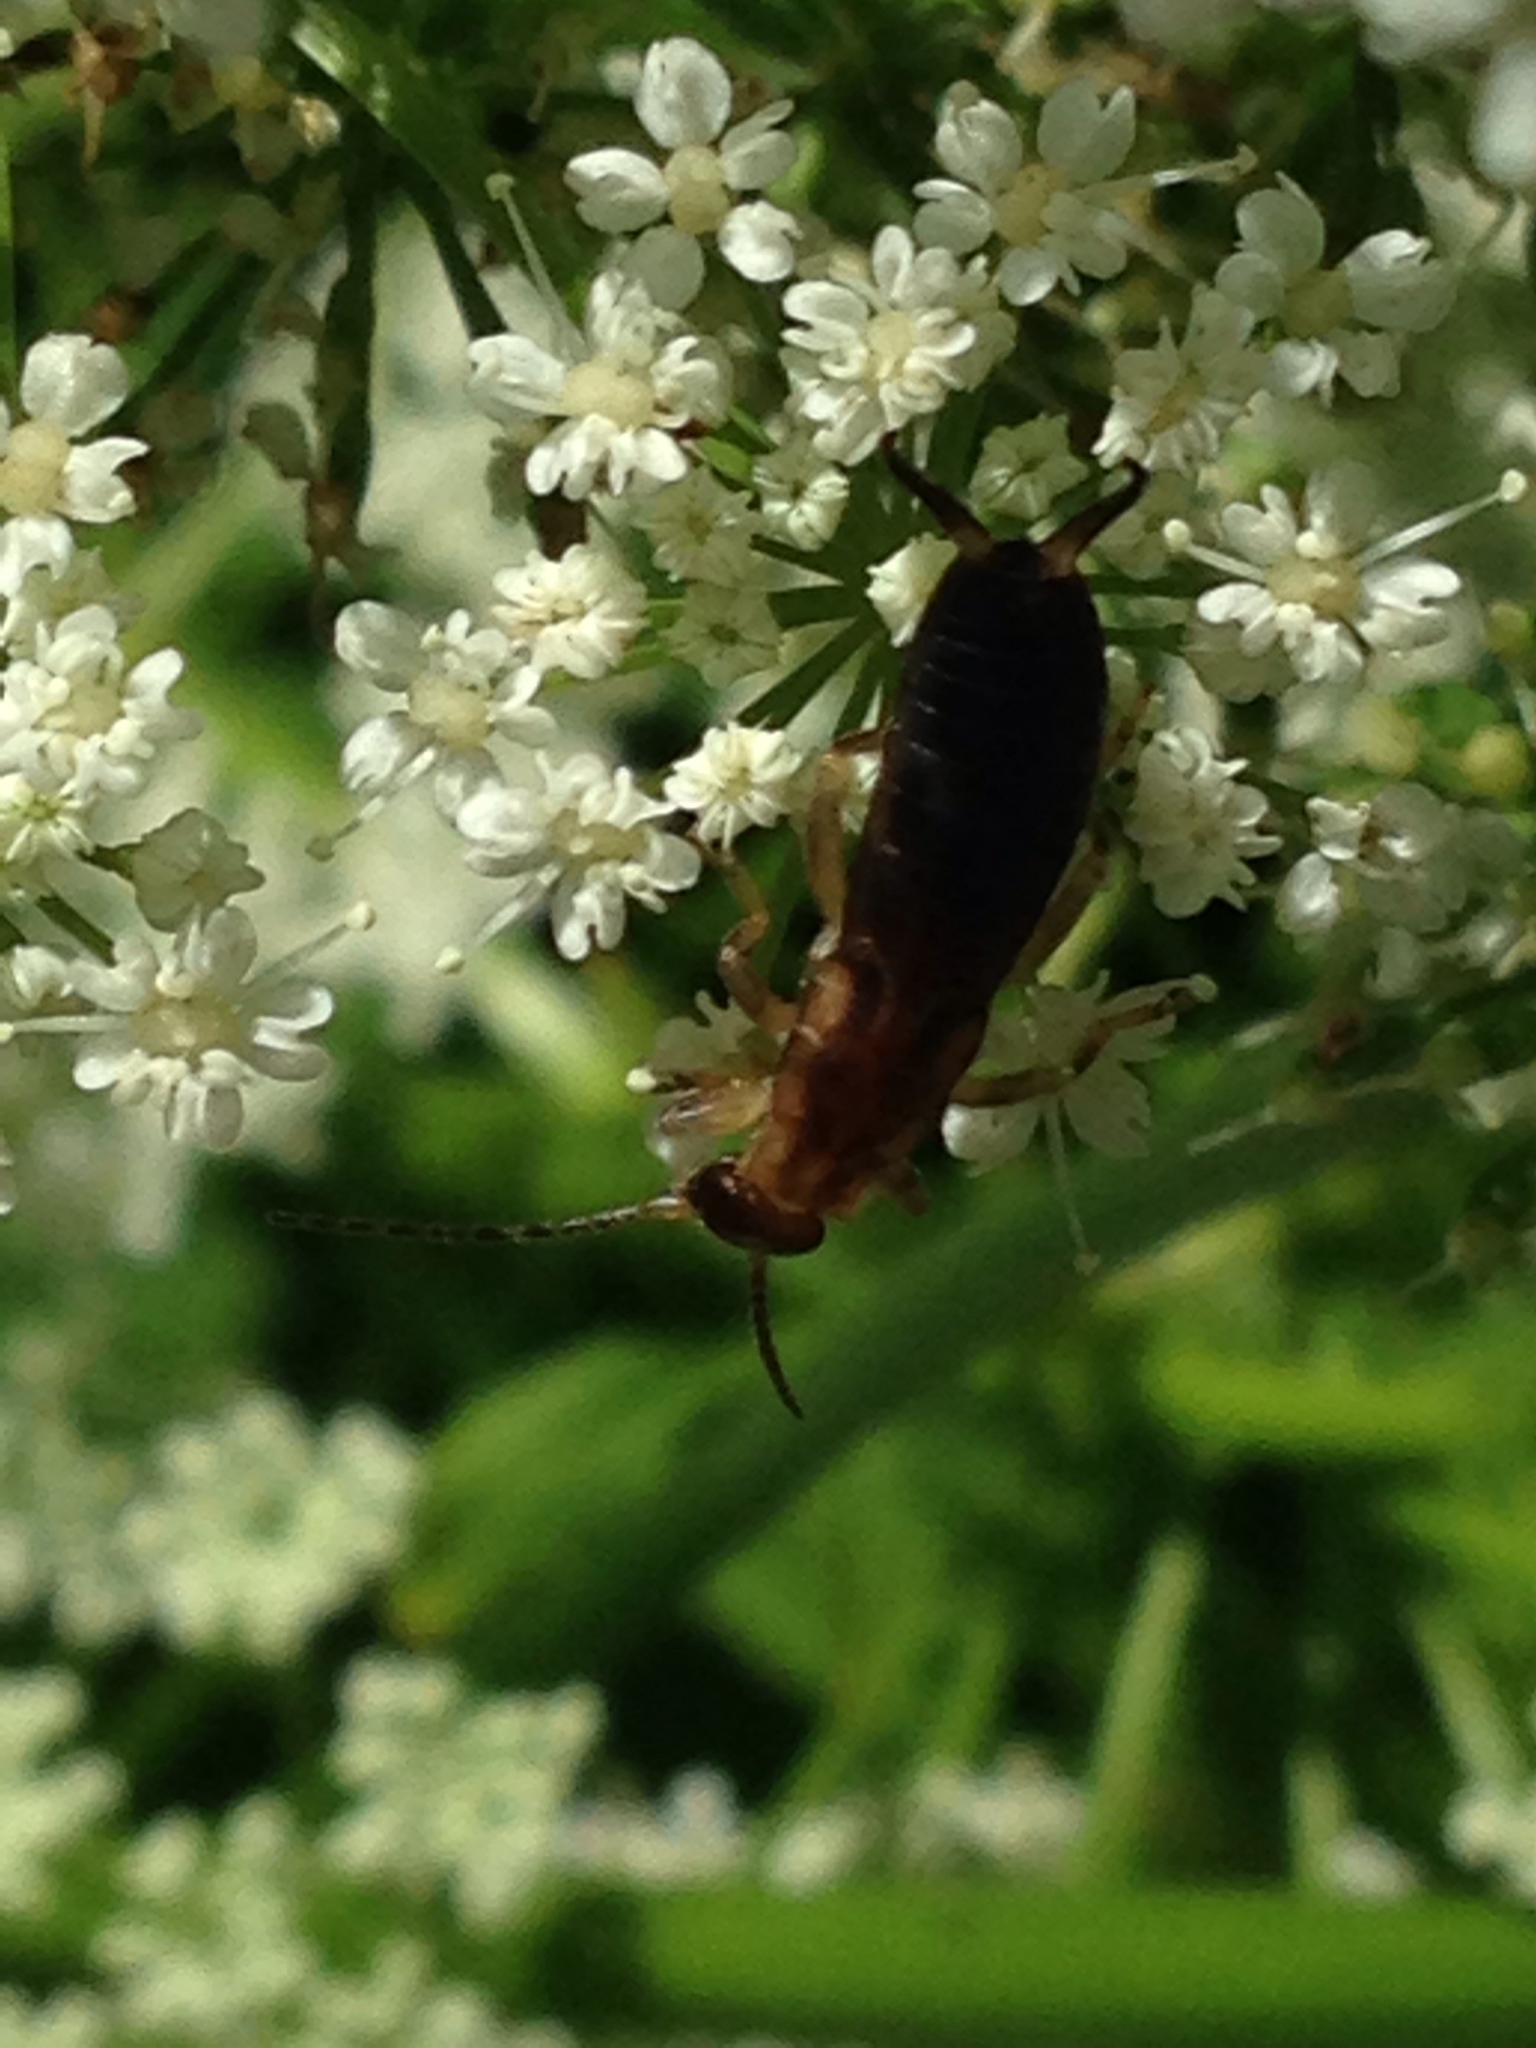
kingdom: Animalia
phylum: Arthropoda
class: Insecta
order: Dermaptera
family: Forficulidae
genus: Forficula
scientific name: Forficula
